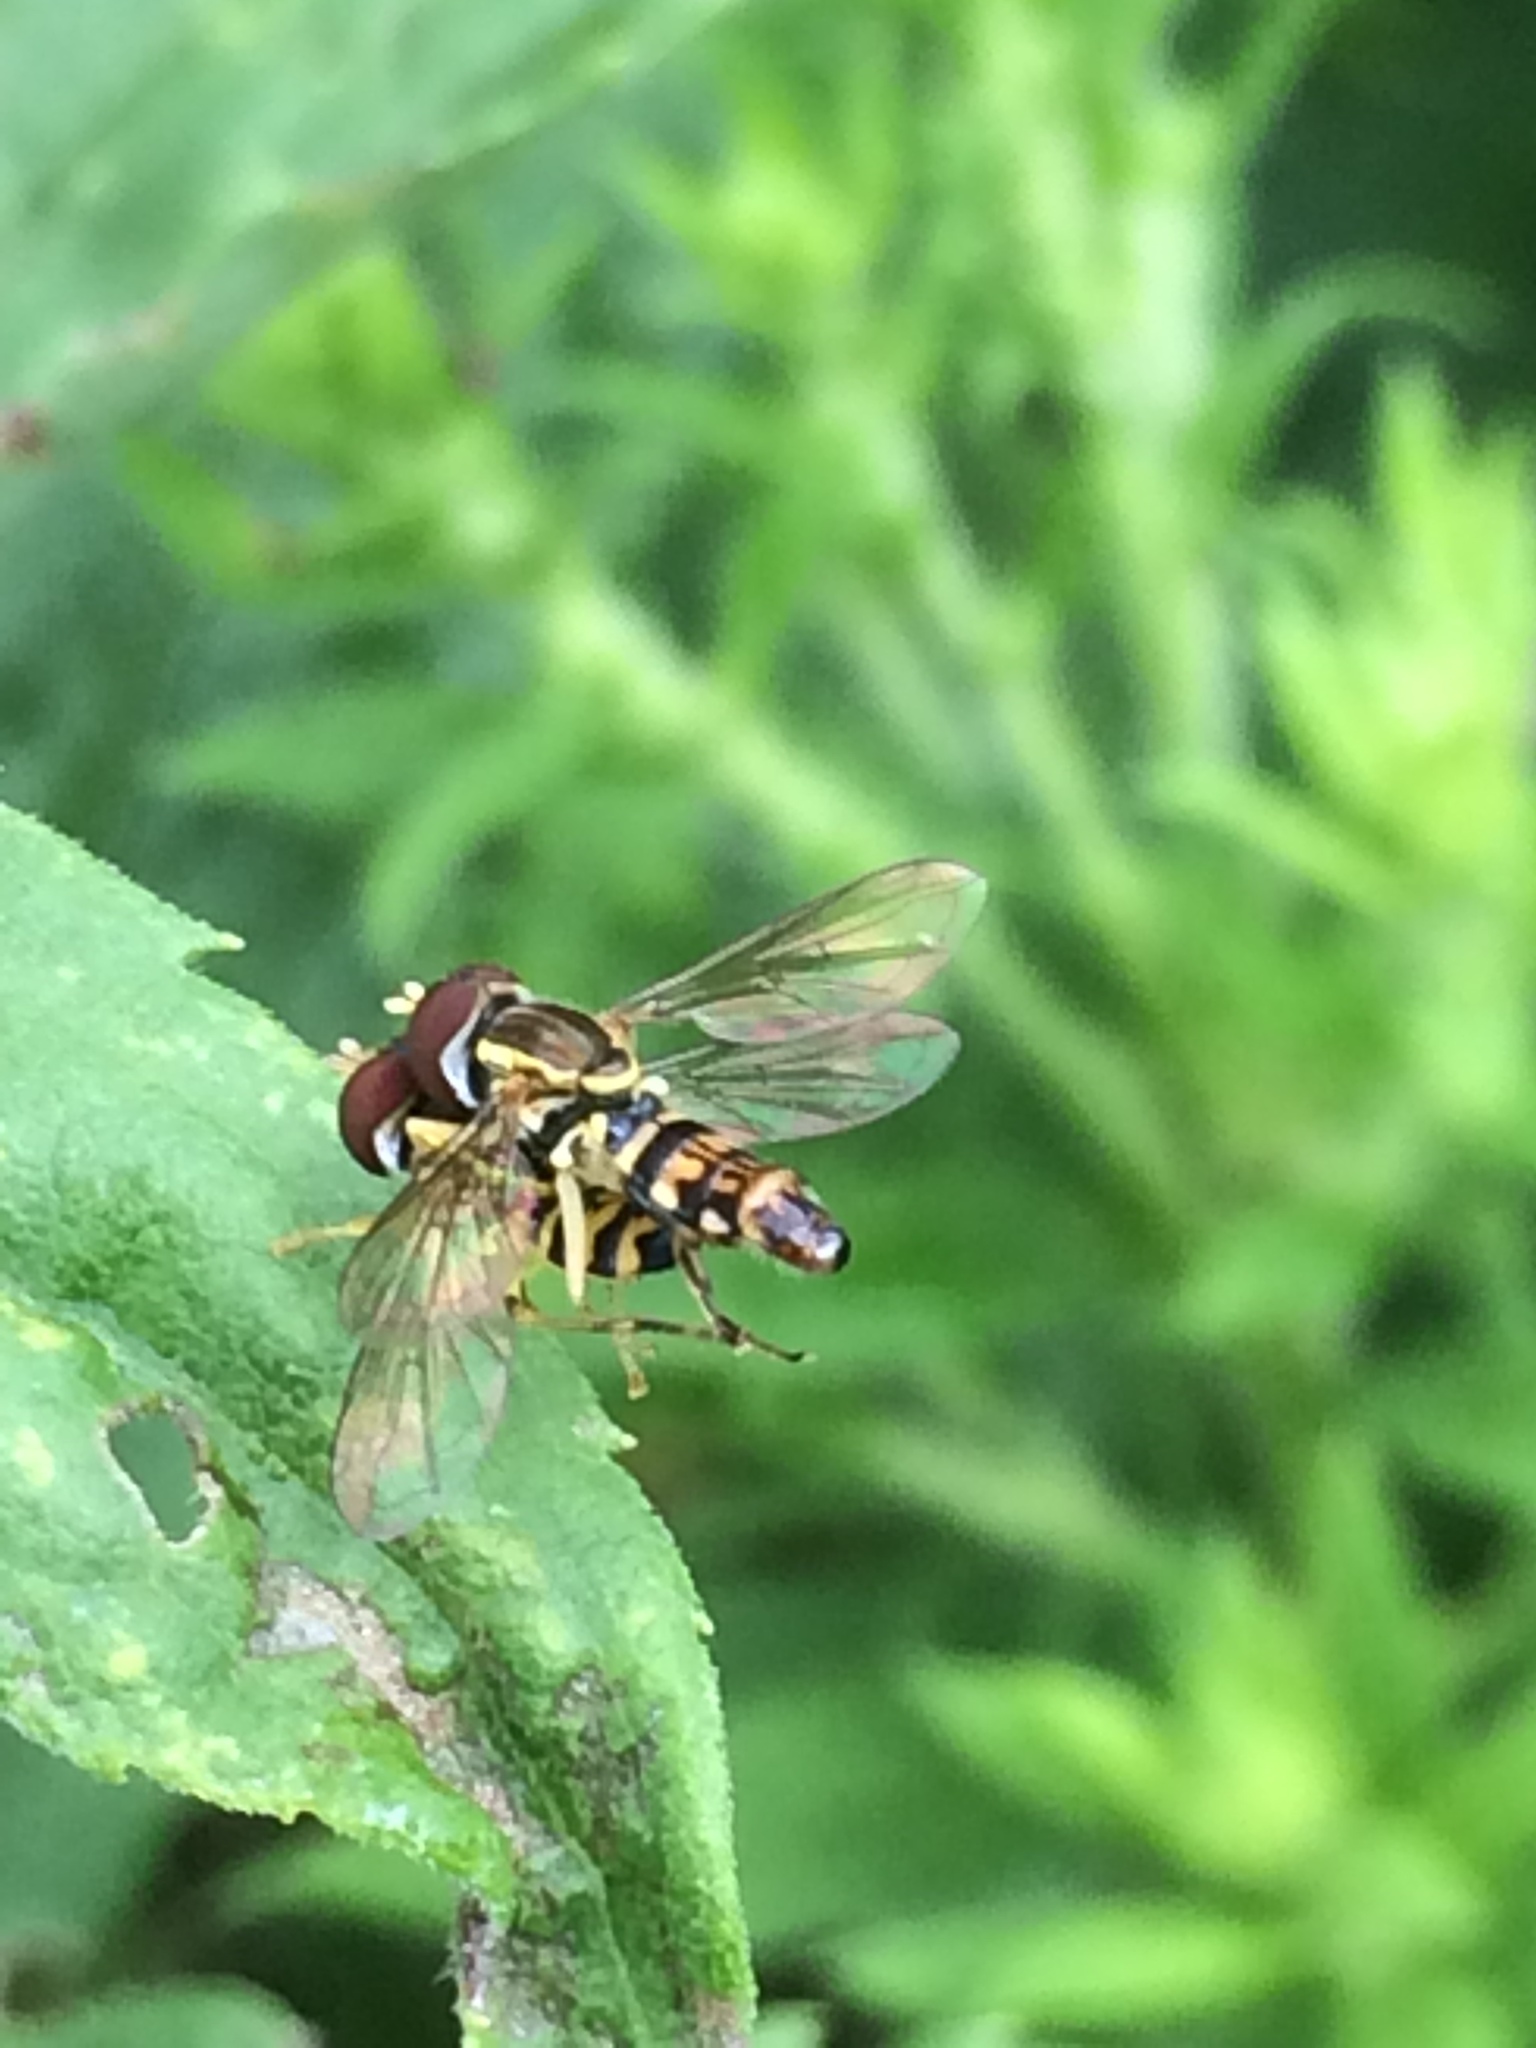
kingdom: Animalia
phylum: Arthropoda
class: Insecta
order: Diptera
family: Syrphidae
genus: Toxomerus
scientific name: Toxomerus geminatus
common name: Eastern calligrapher
